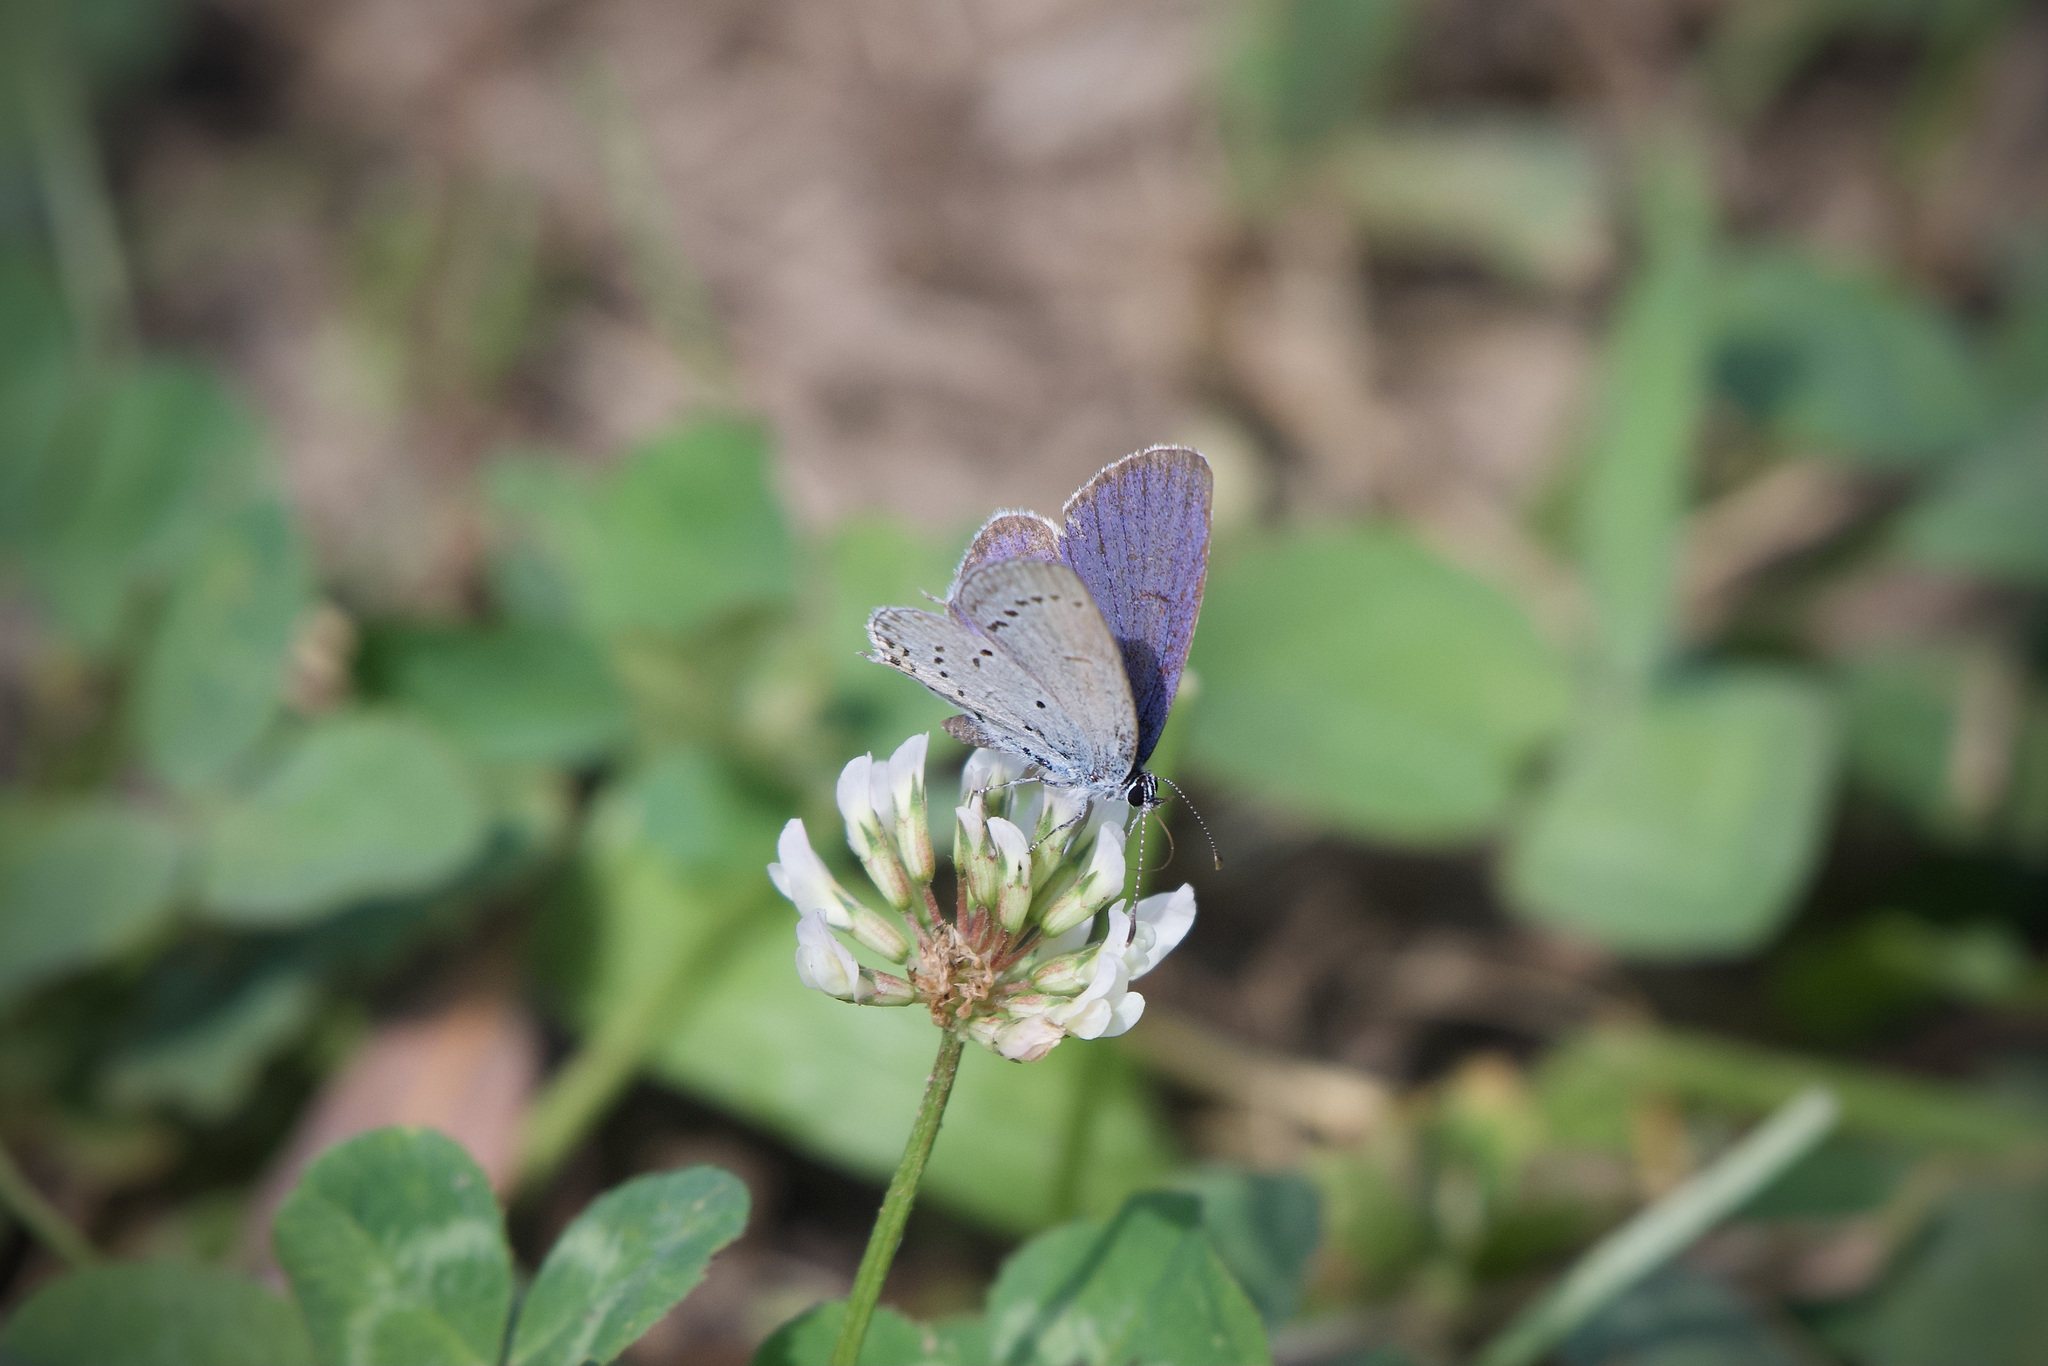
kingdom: Animalia
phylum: Arthropoda
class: Insecta
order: Lepidoptera
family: Lycaenidae
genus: Elkalyce
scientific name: Elkalyce argiades
